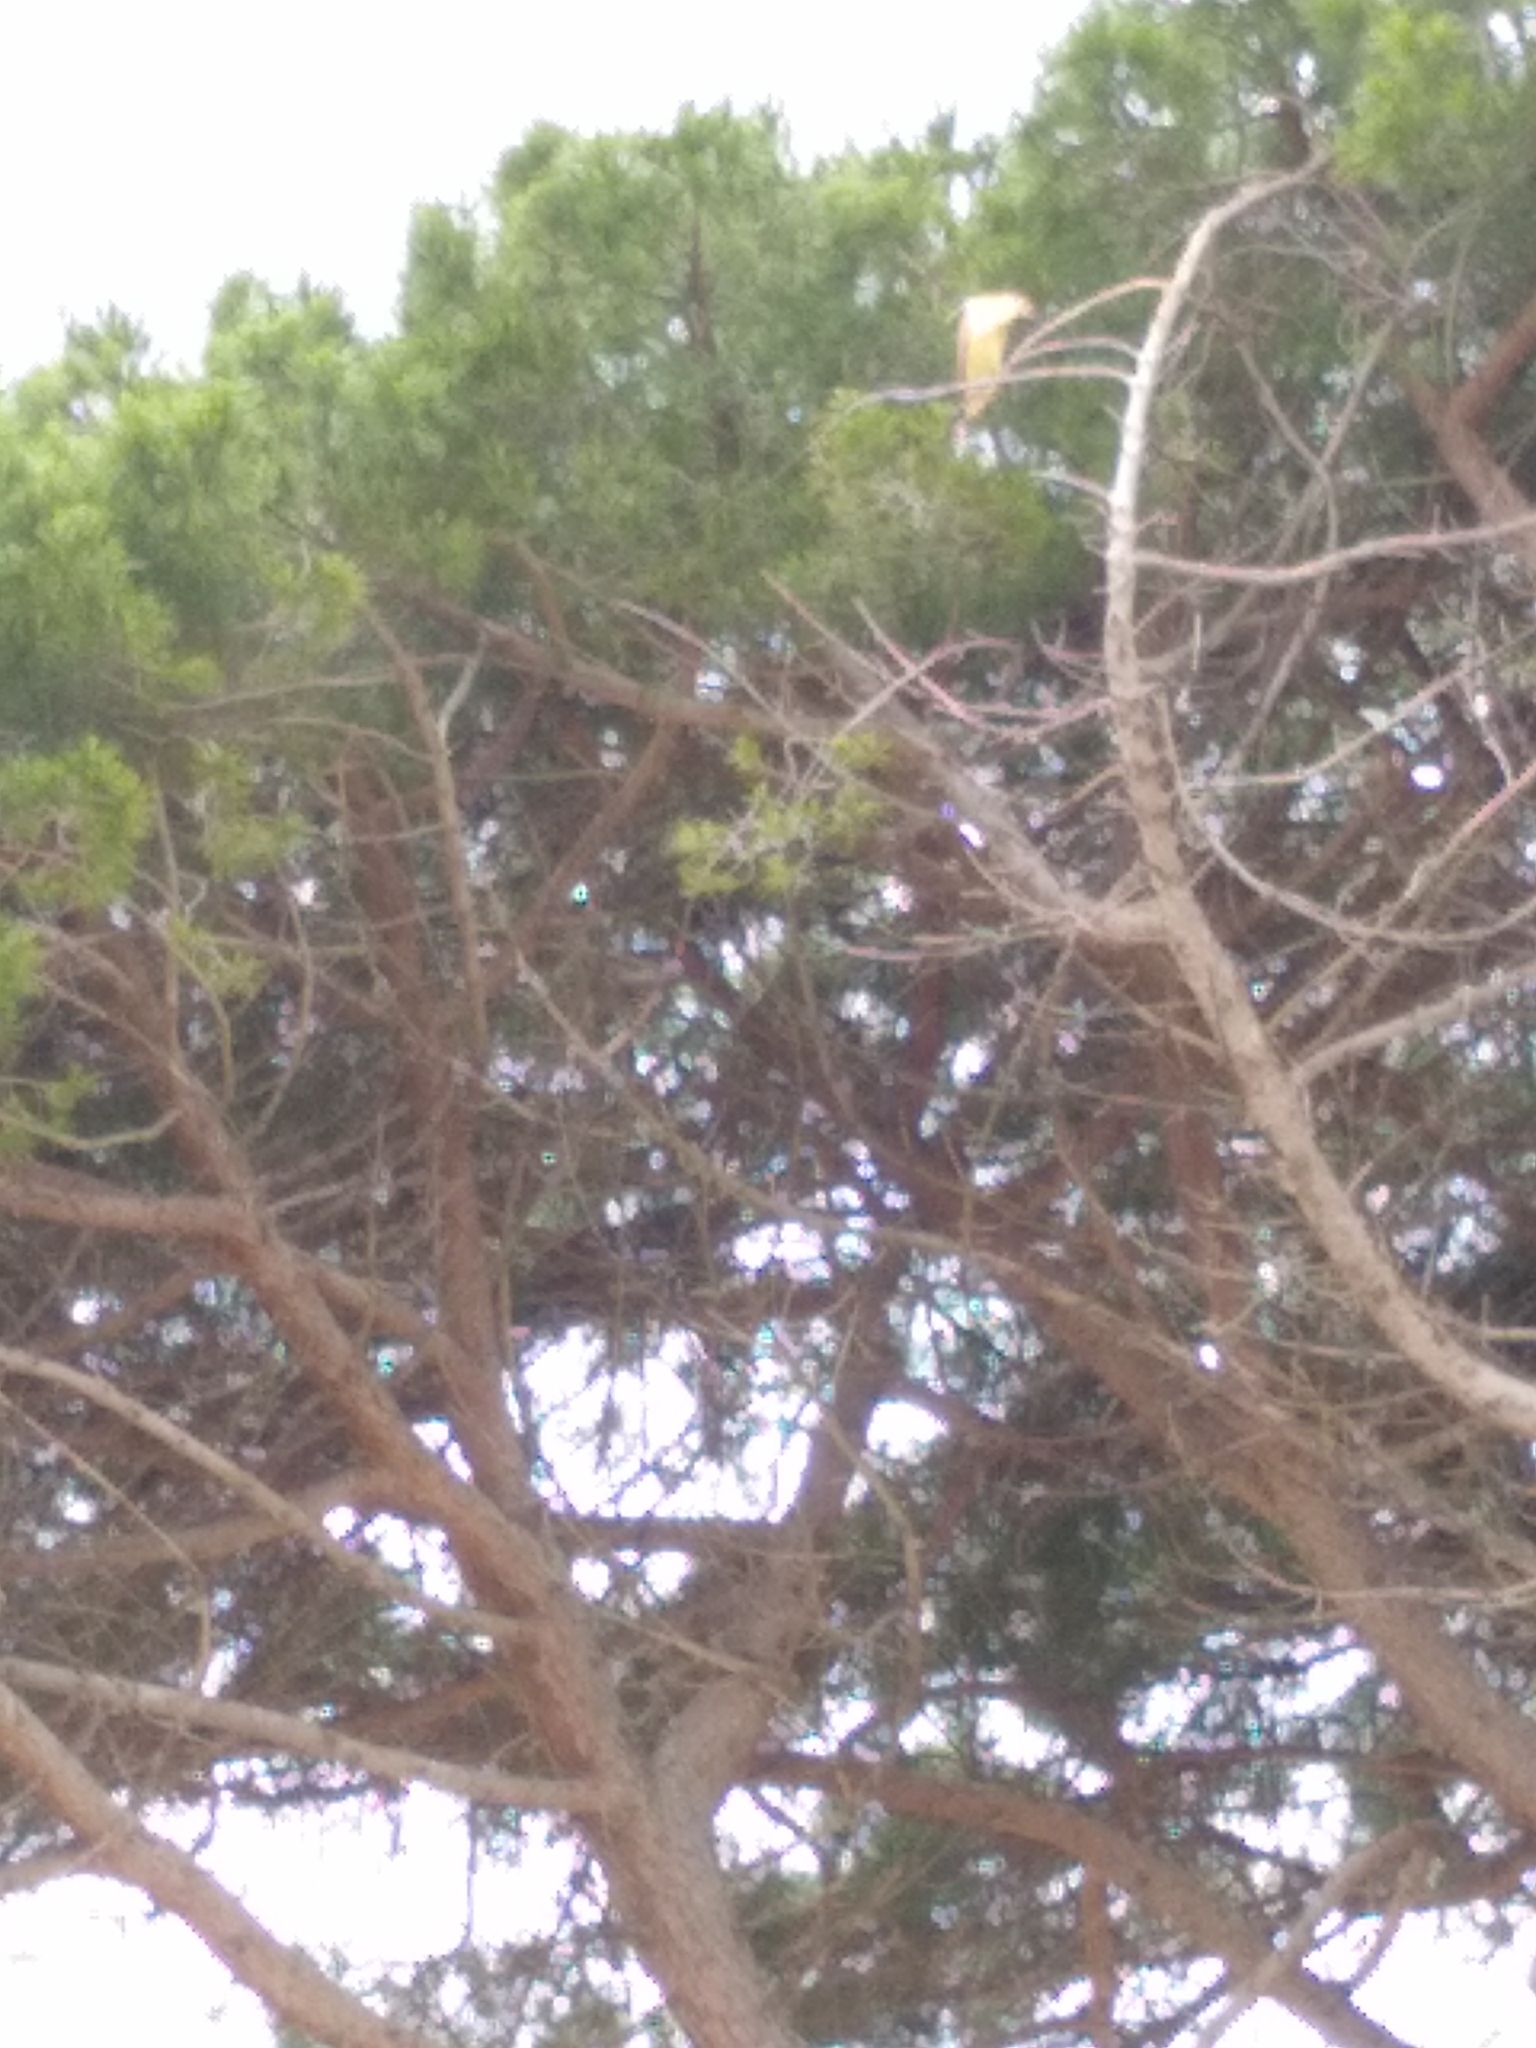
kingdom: Animalia
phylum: Chordata
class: Aves
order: Pelecaniformes
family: Ardeidae
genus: Nycticorax
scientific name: Nycticorax caledonicus
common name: Rufous night-heron
